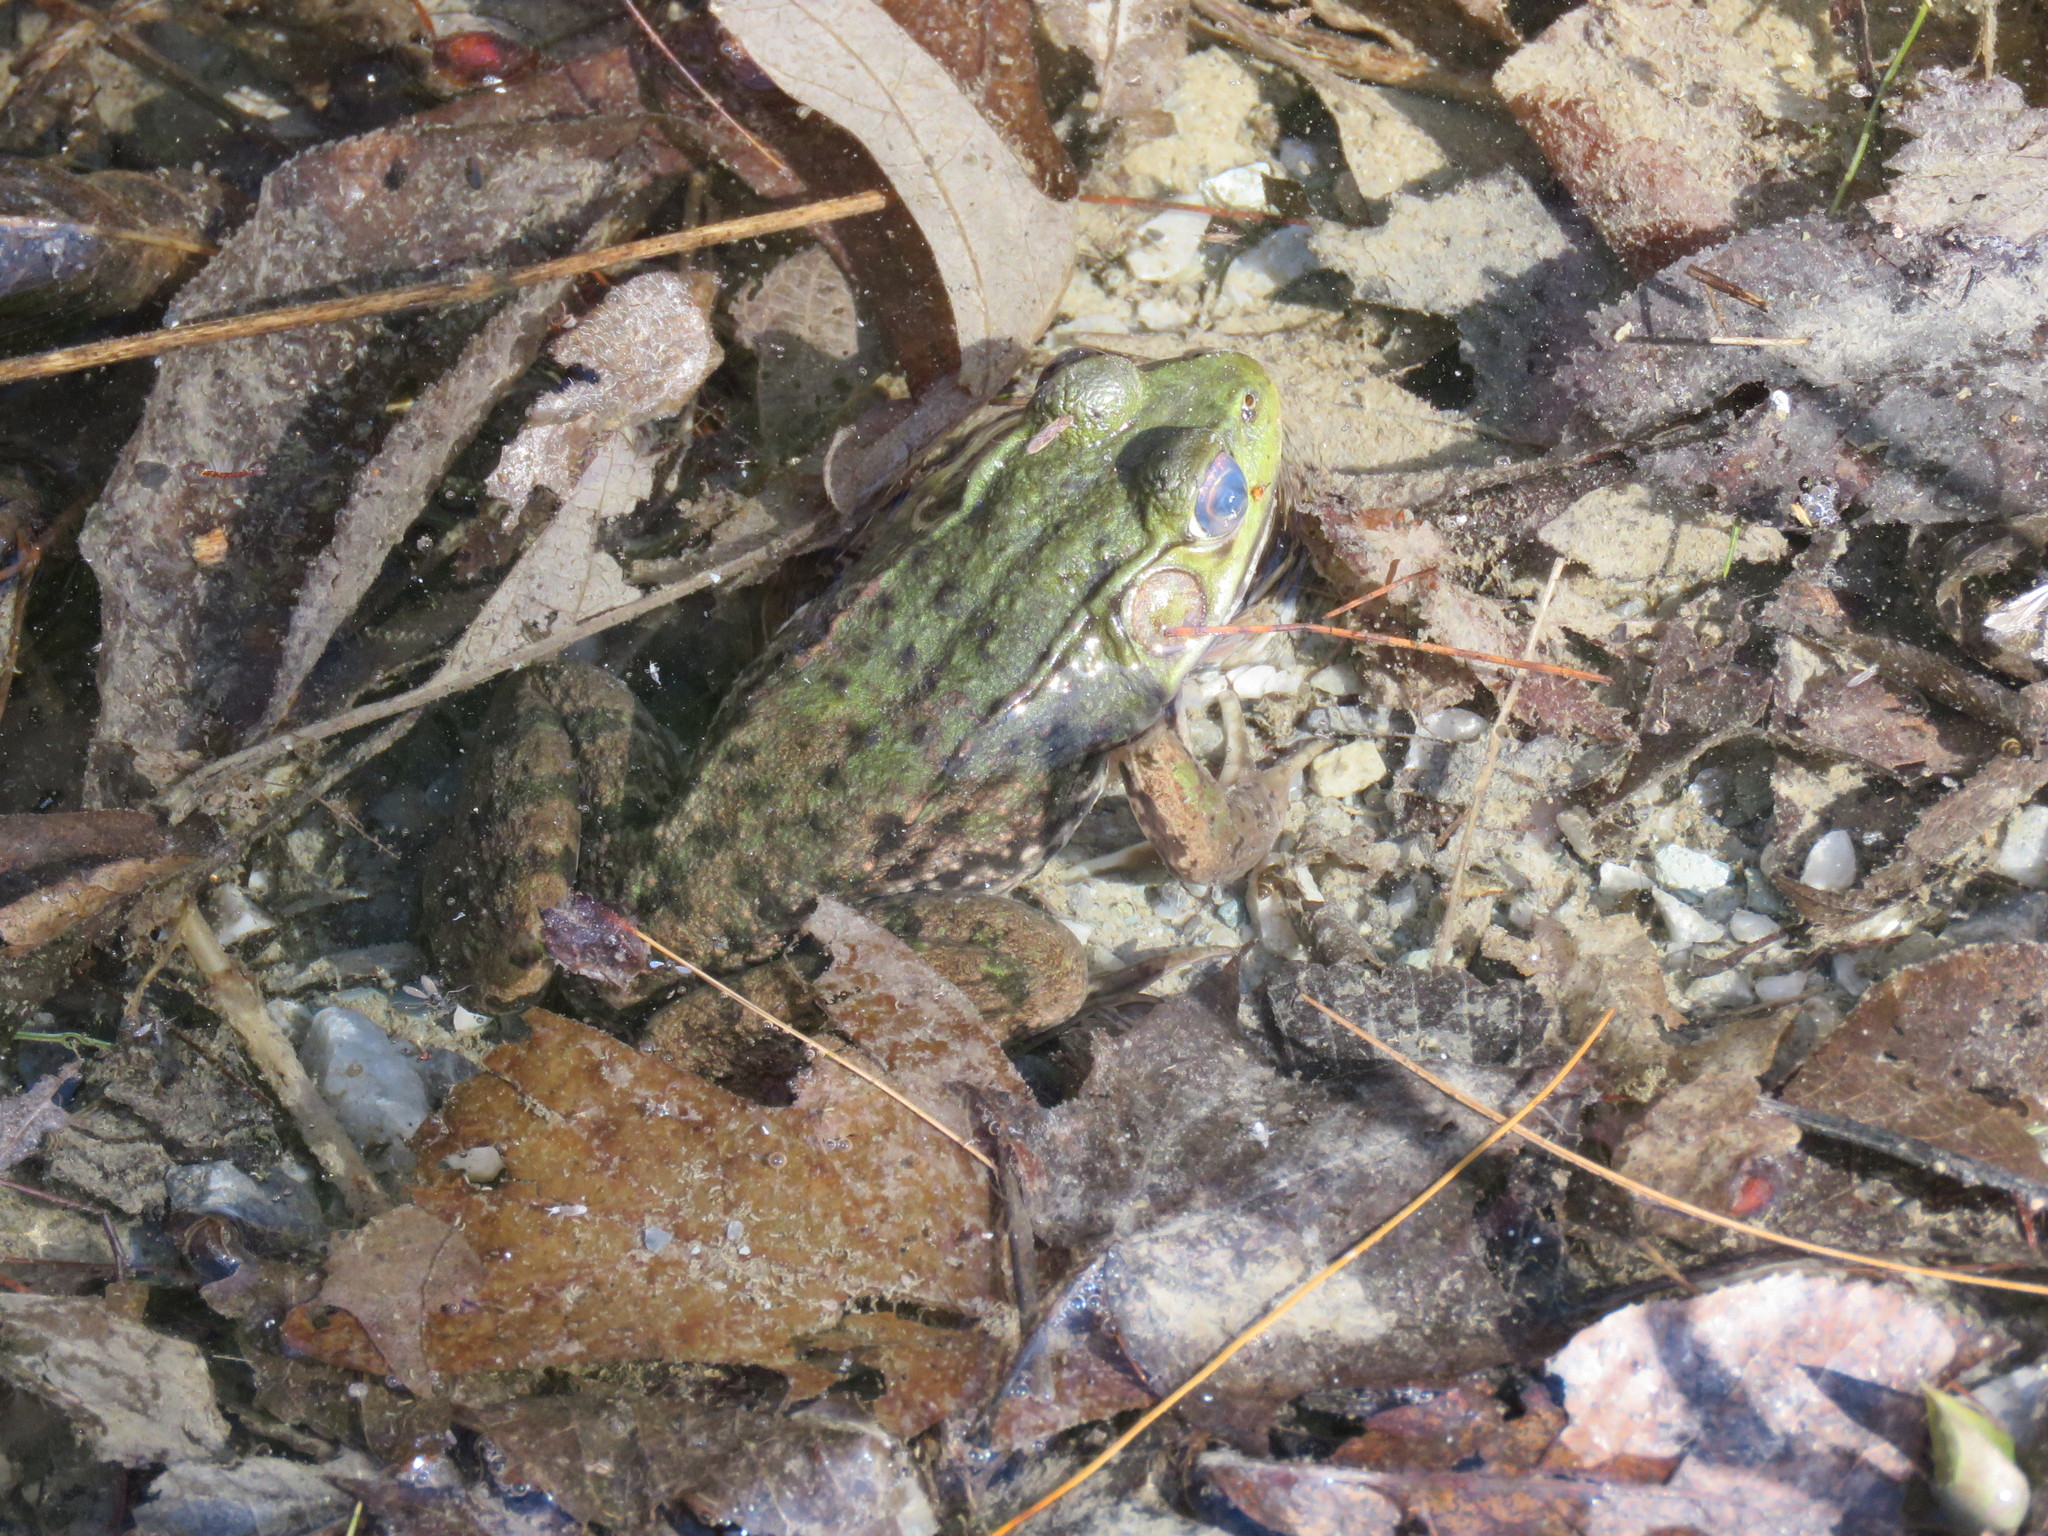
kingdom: Animalia
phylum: Chordata
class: Amphibia
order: Anura
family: Ranidae
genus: Lithobates
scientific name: Lithobates clamitans
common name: Green frog
